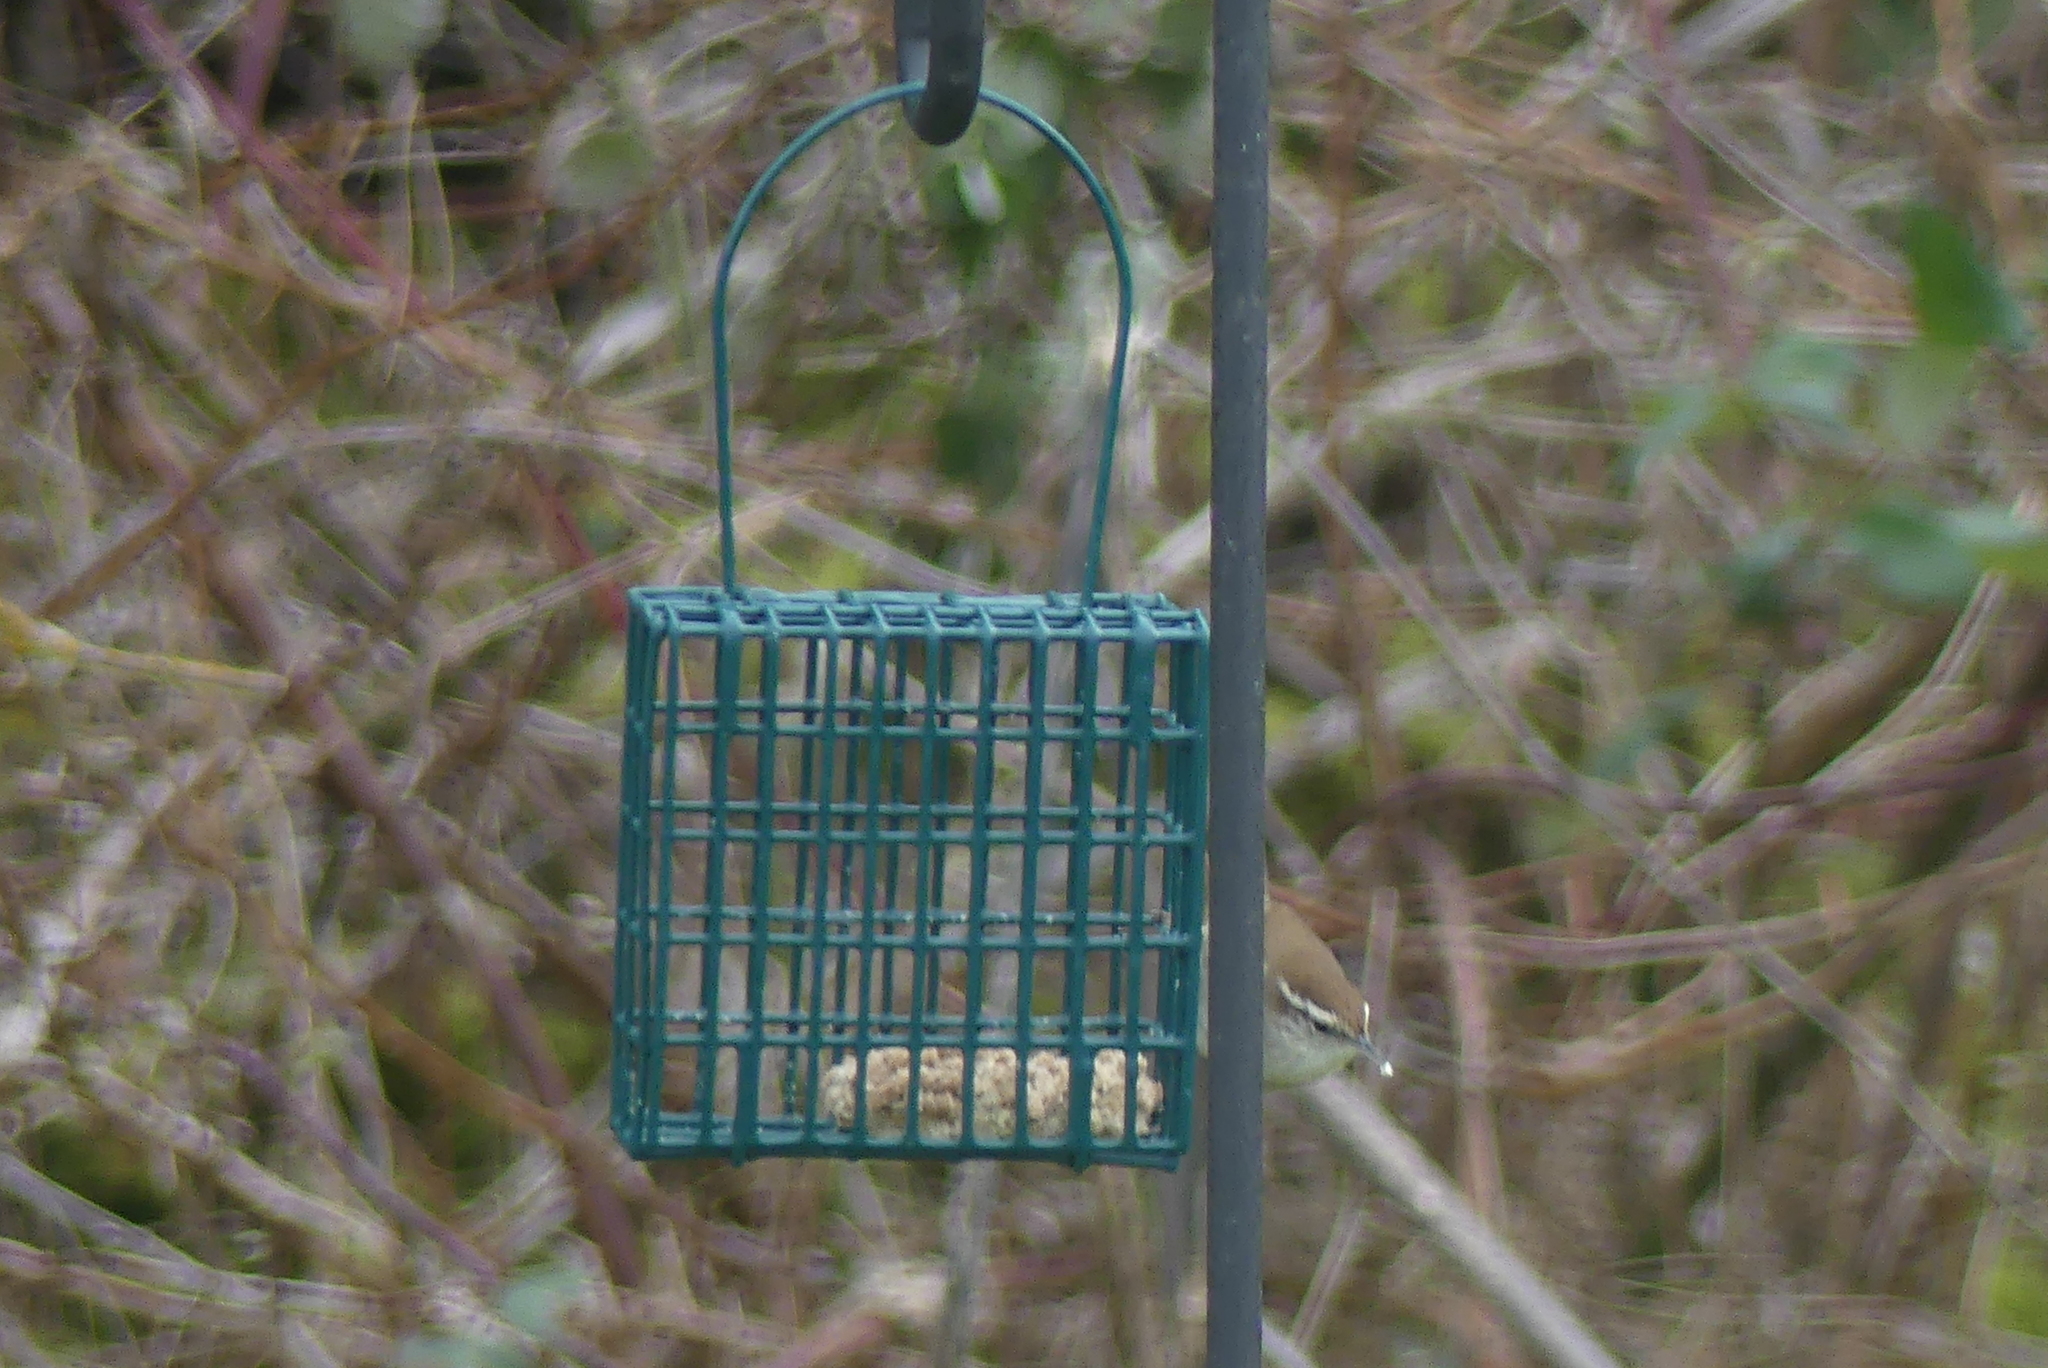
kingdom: Animalia
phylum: Chordata
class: Aves
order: Passeriformes
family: Troglodytidae
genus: Thryomanes
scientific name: Thryomanes bewickii
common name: Bewick's wren
